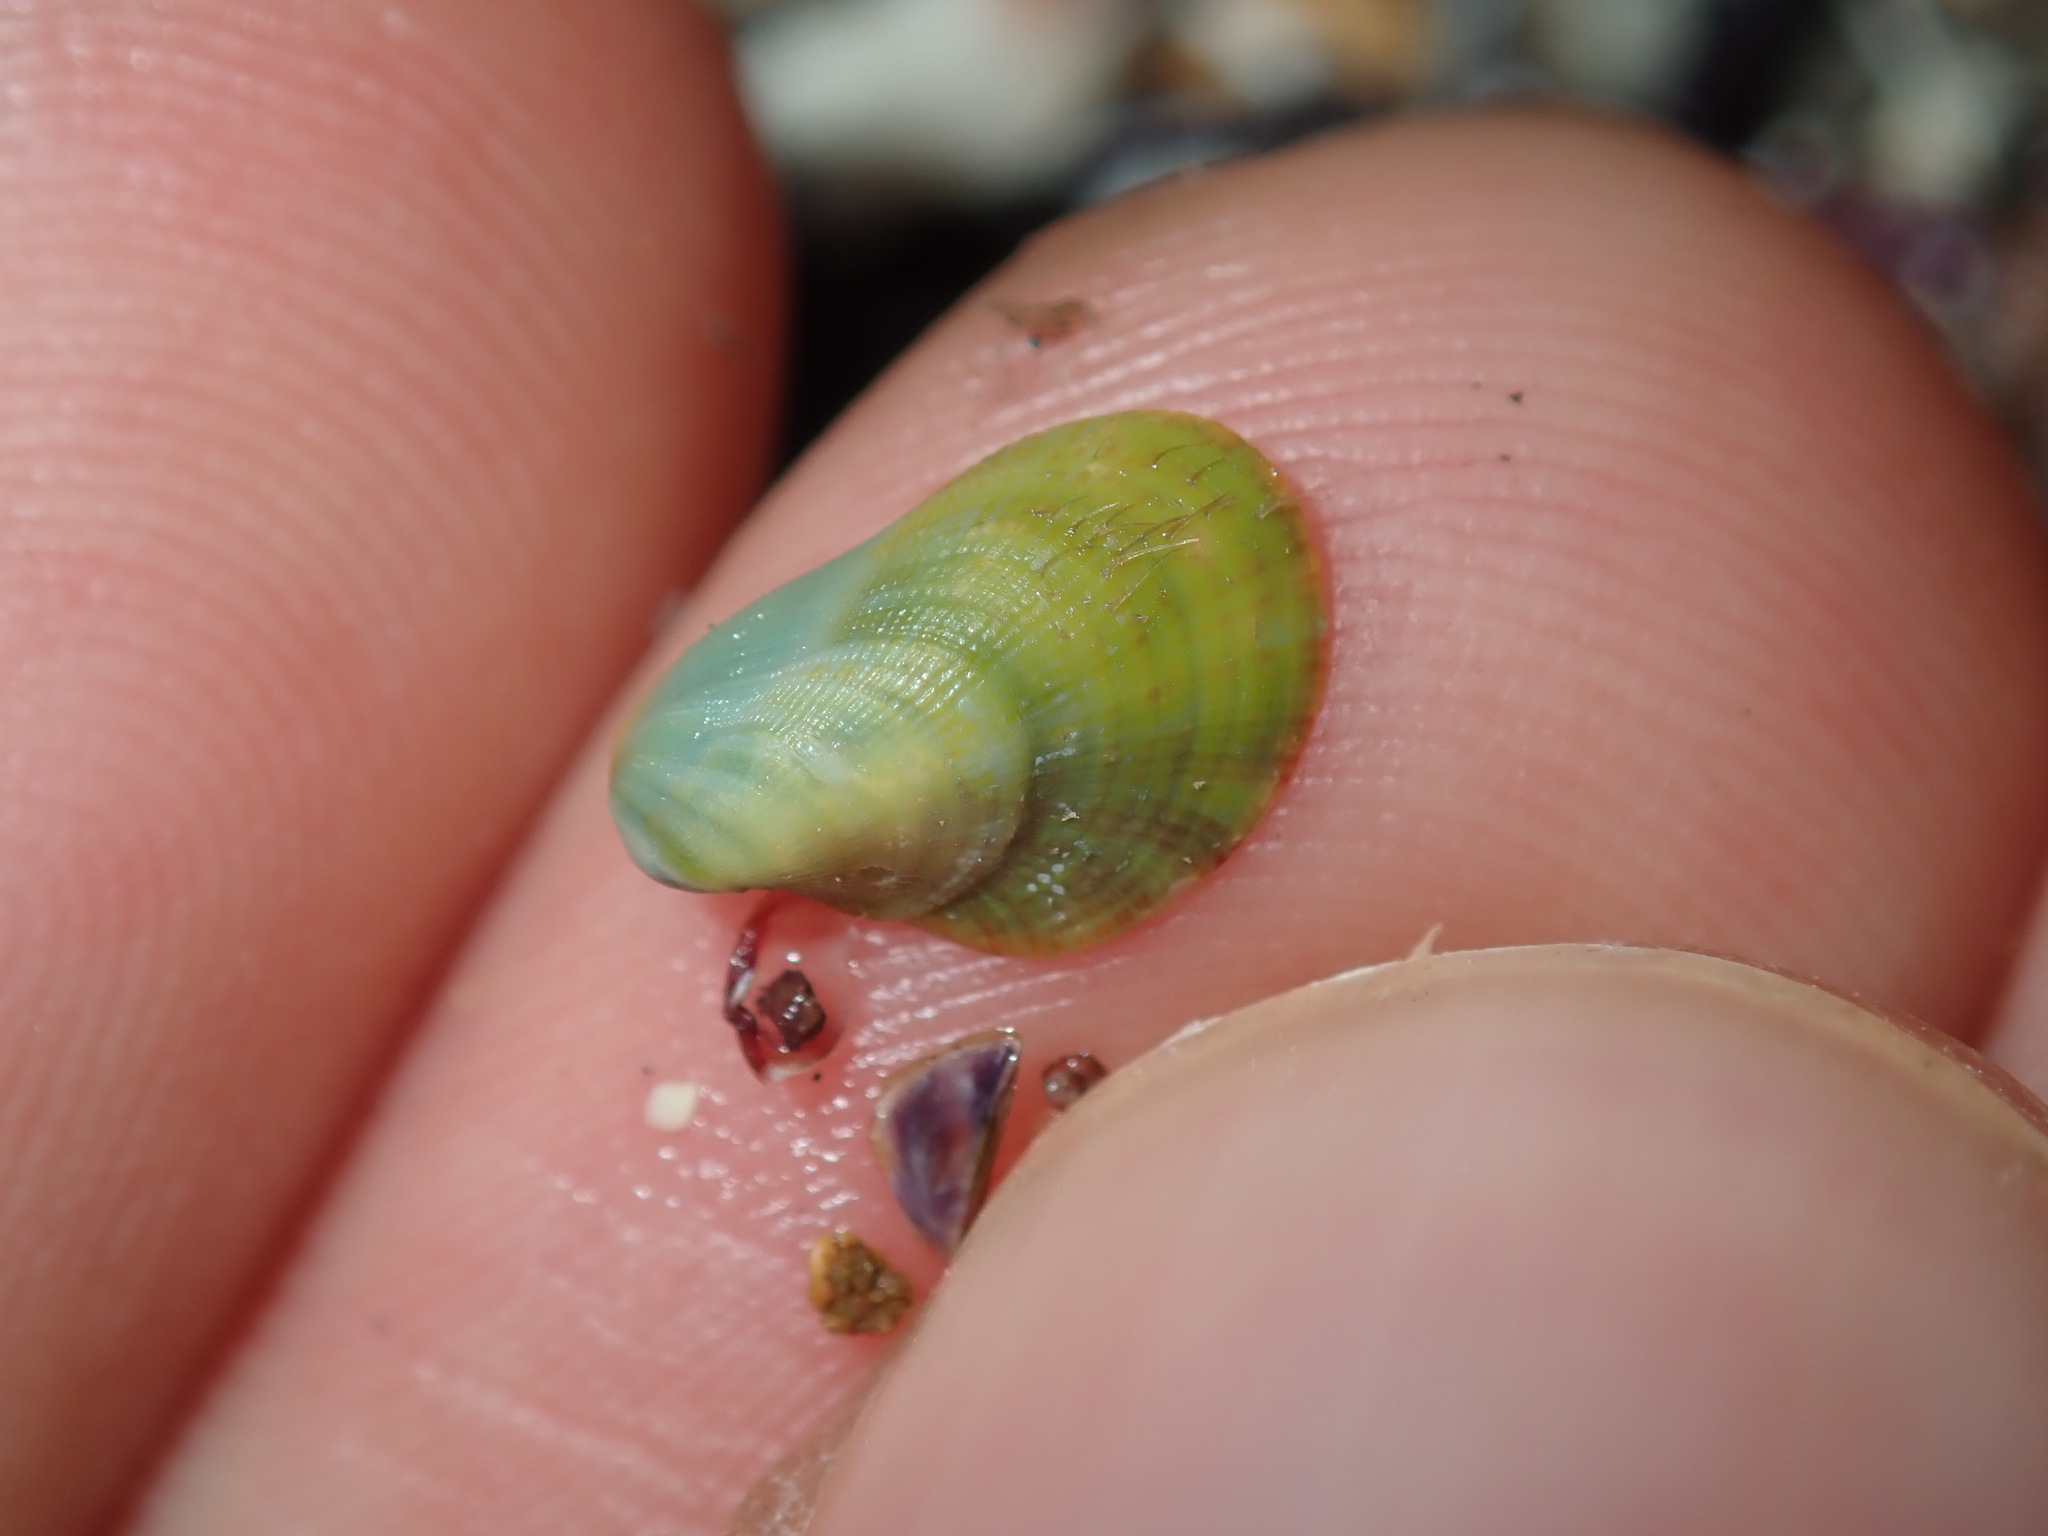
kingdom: Animalia
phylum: Mollusca
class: Bivalvia
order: Mytilida
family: Mytilidae
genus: Septifer
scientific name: Septifer cumingii
